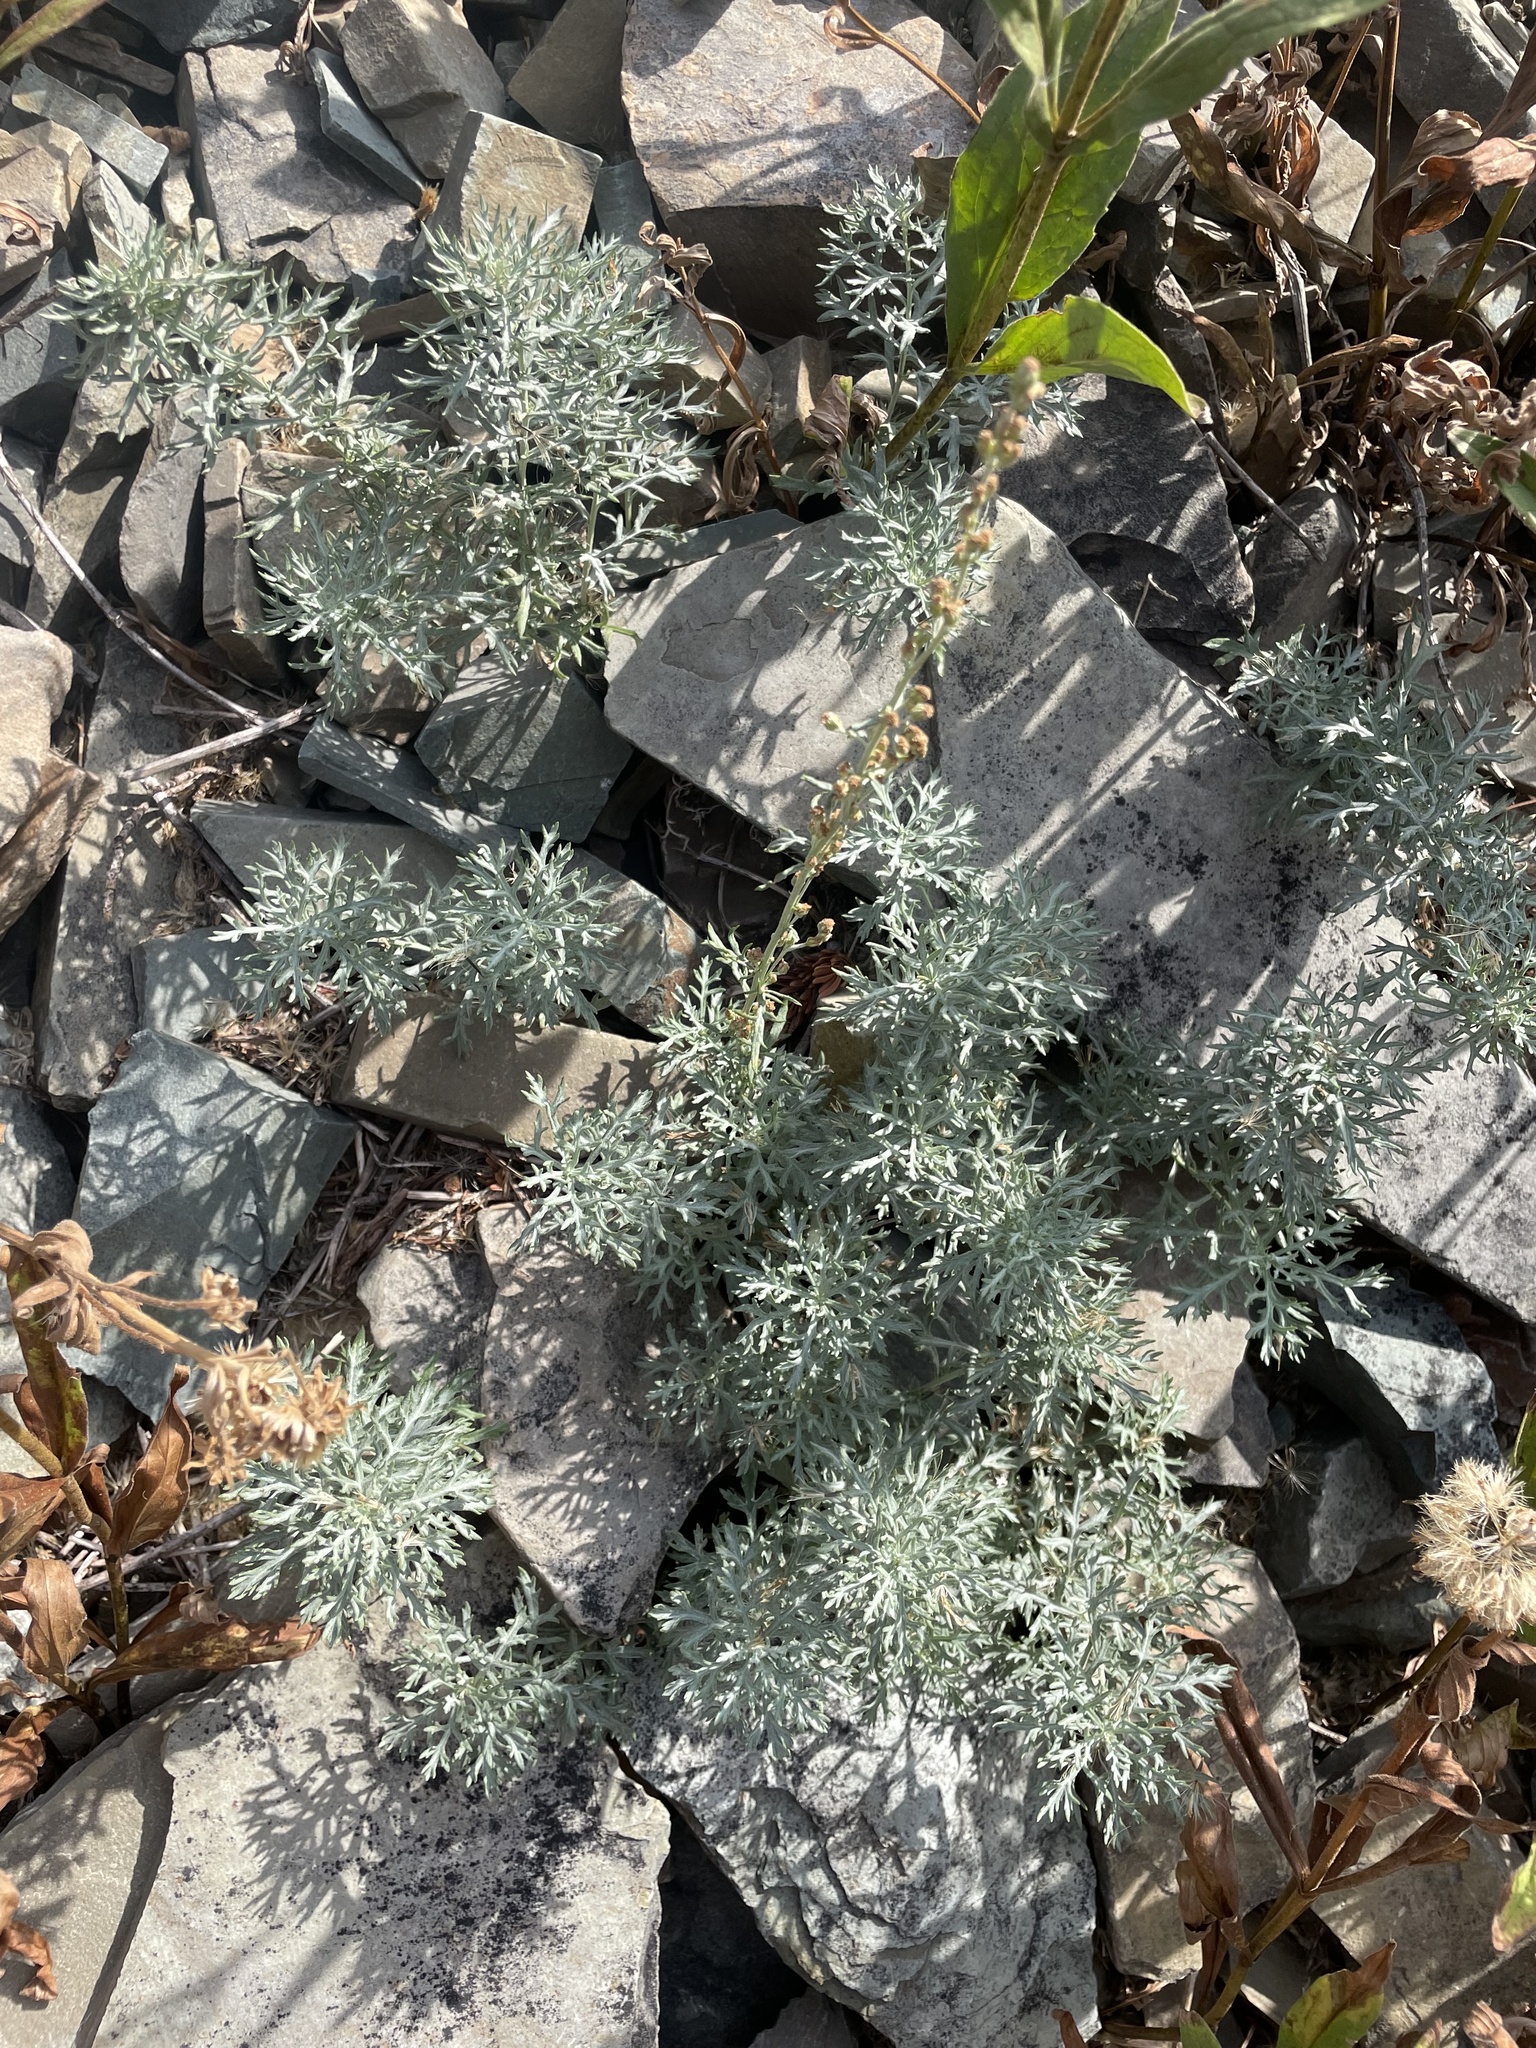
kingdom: Plantae
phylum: Tracheophyta
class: Magnoliopsida
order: Asterales
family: Asteraceae
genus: Artemisia
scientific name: Artemisia michauxiana
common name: Lemon sagewort
